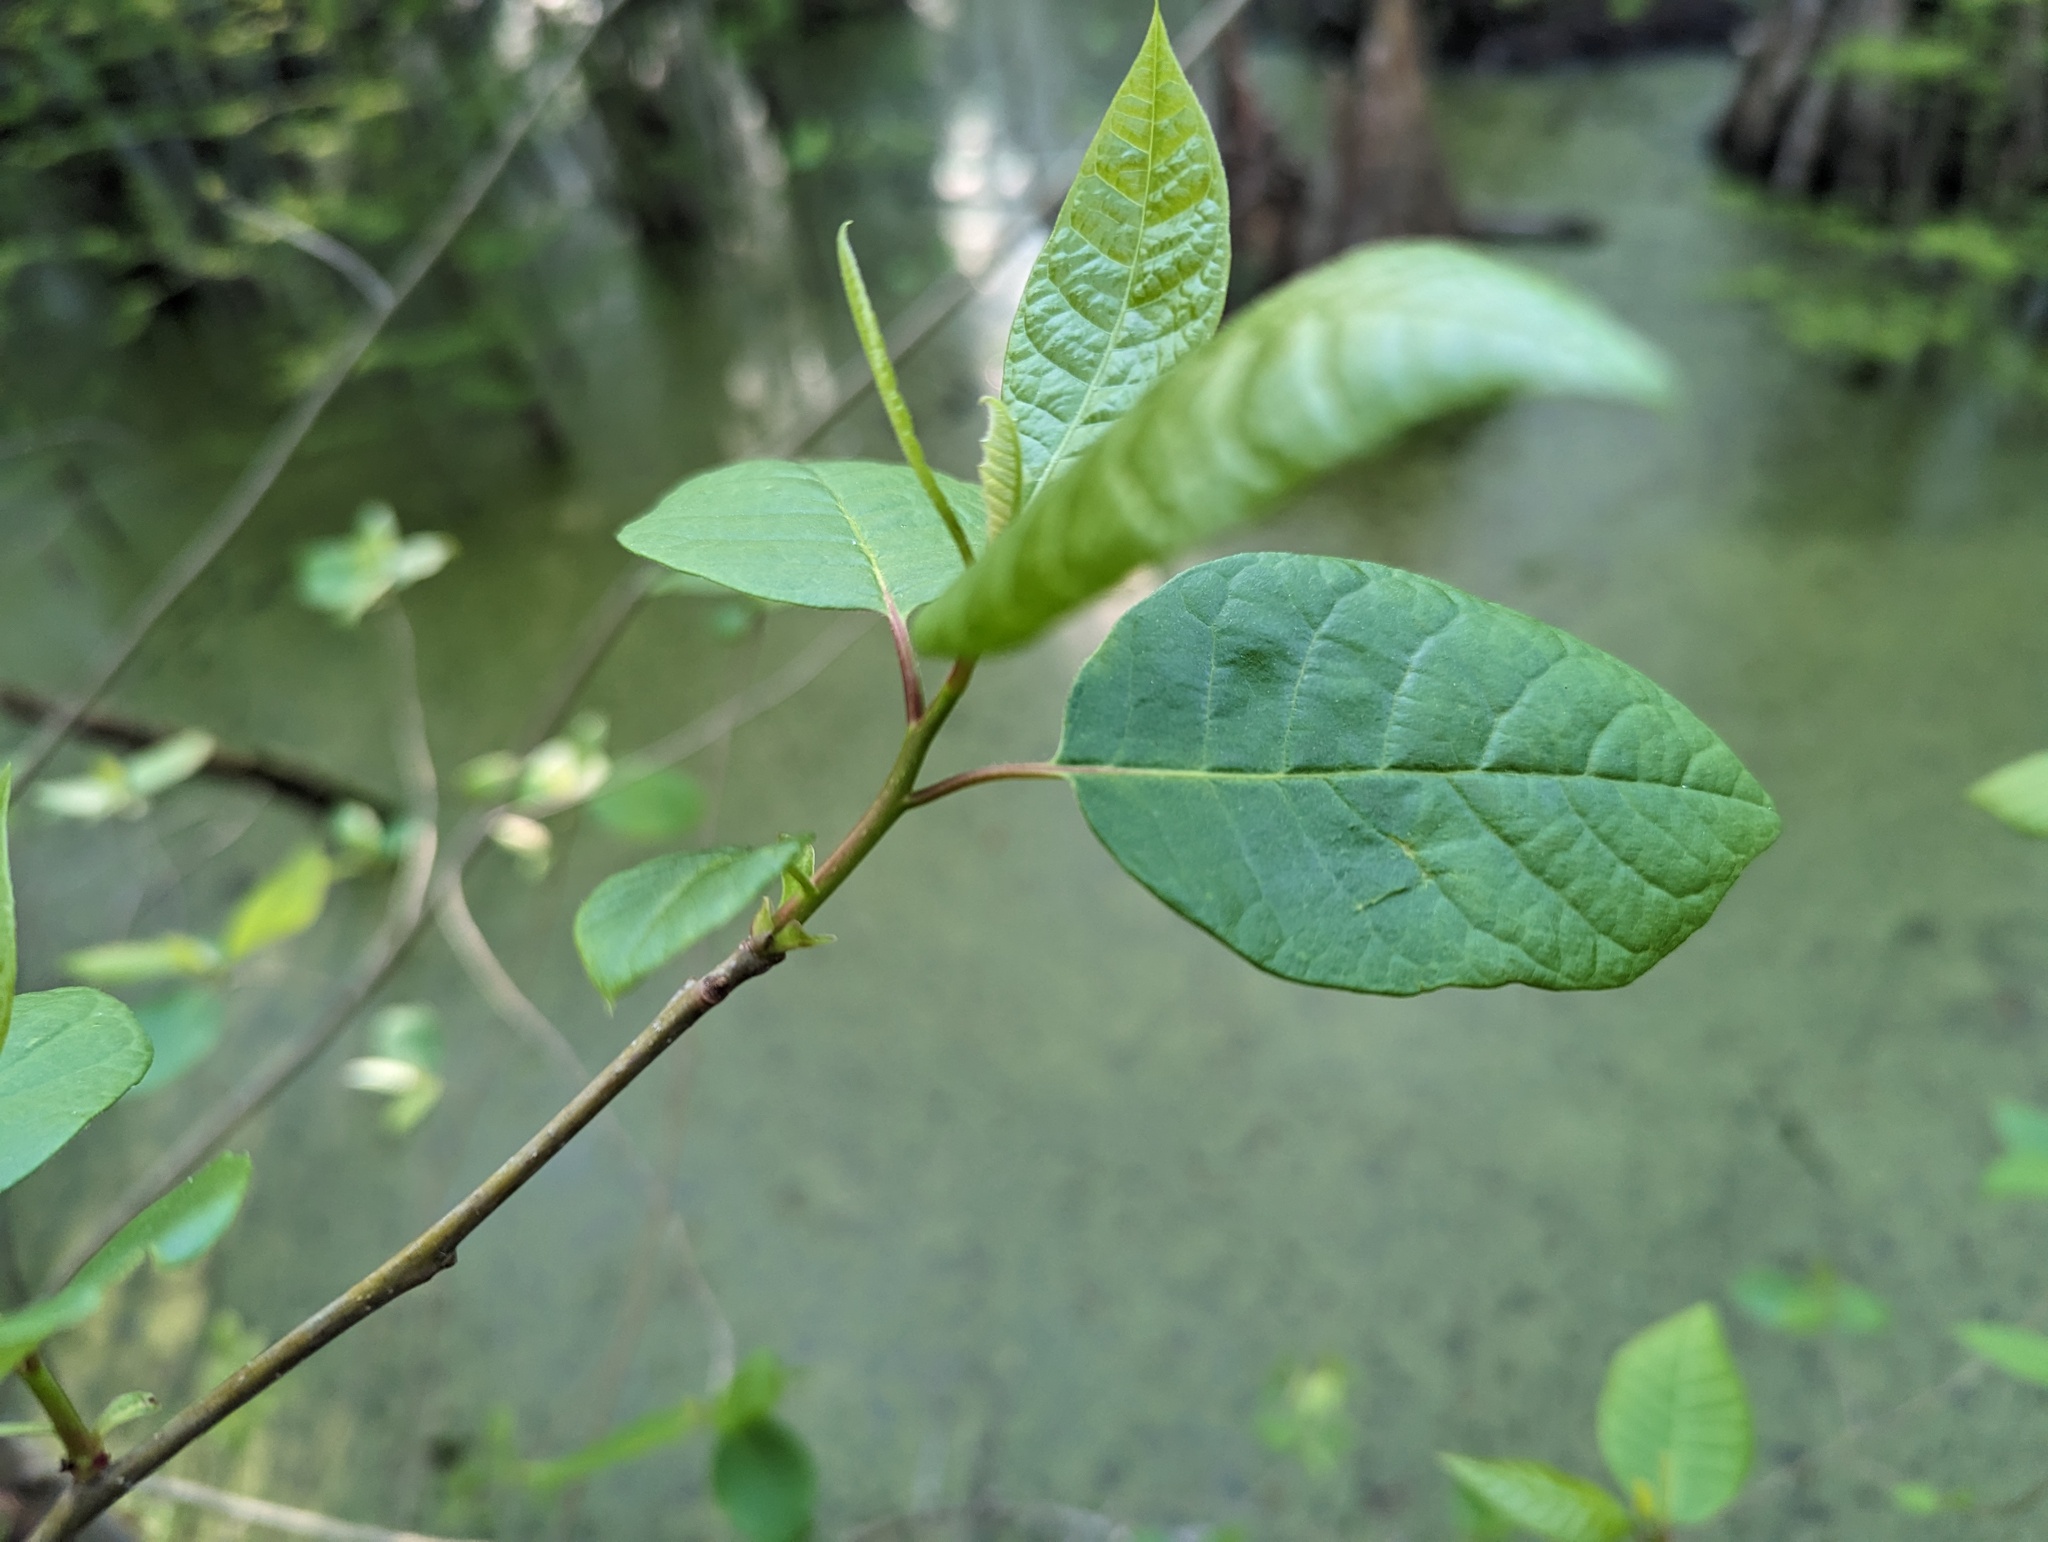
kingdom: Plantae
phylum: Tracheophyta
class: Magnoliopsida
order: Cornales
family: Nyssaceae
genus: Nyssa
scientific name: Nyssa aquatica
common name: Swamp tupelo
